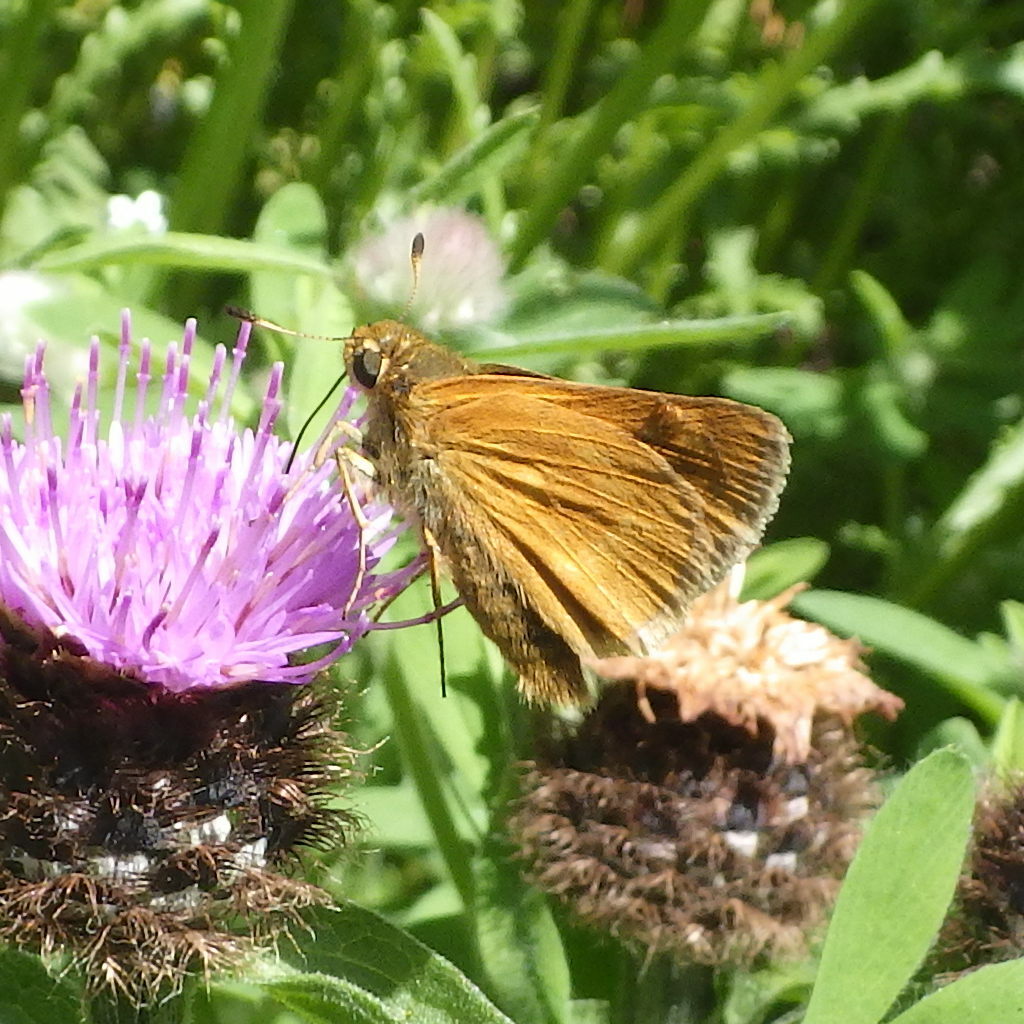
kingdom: Animalia
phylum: Arthropoda
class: Insecta
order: Lepidoptera
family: Hesperiidae
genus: Polites
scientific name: Polites mystic
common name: Long dash
